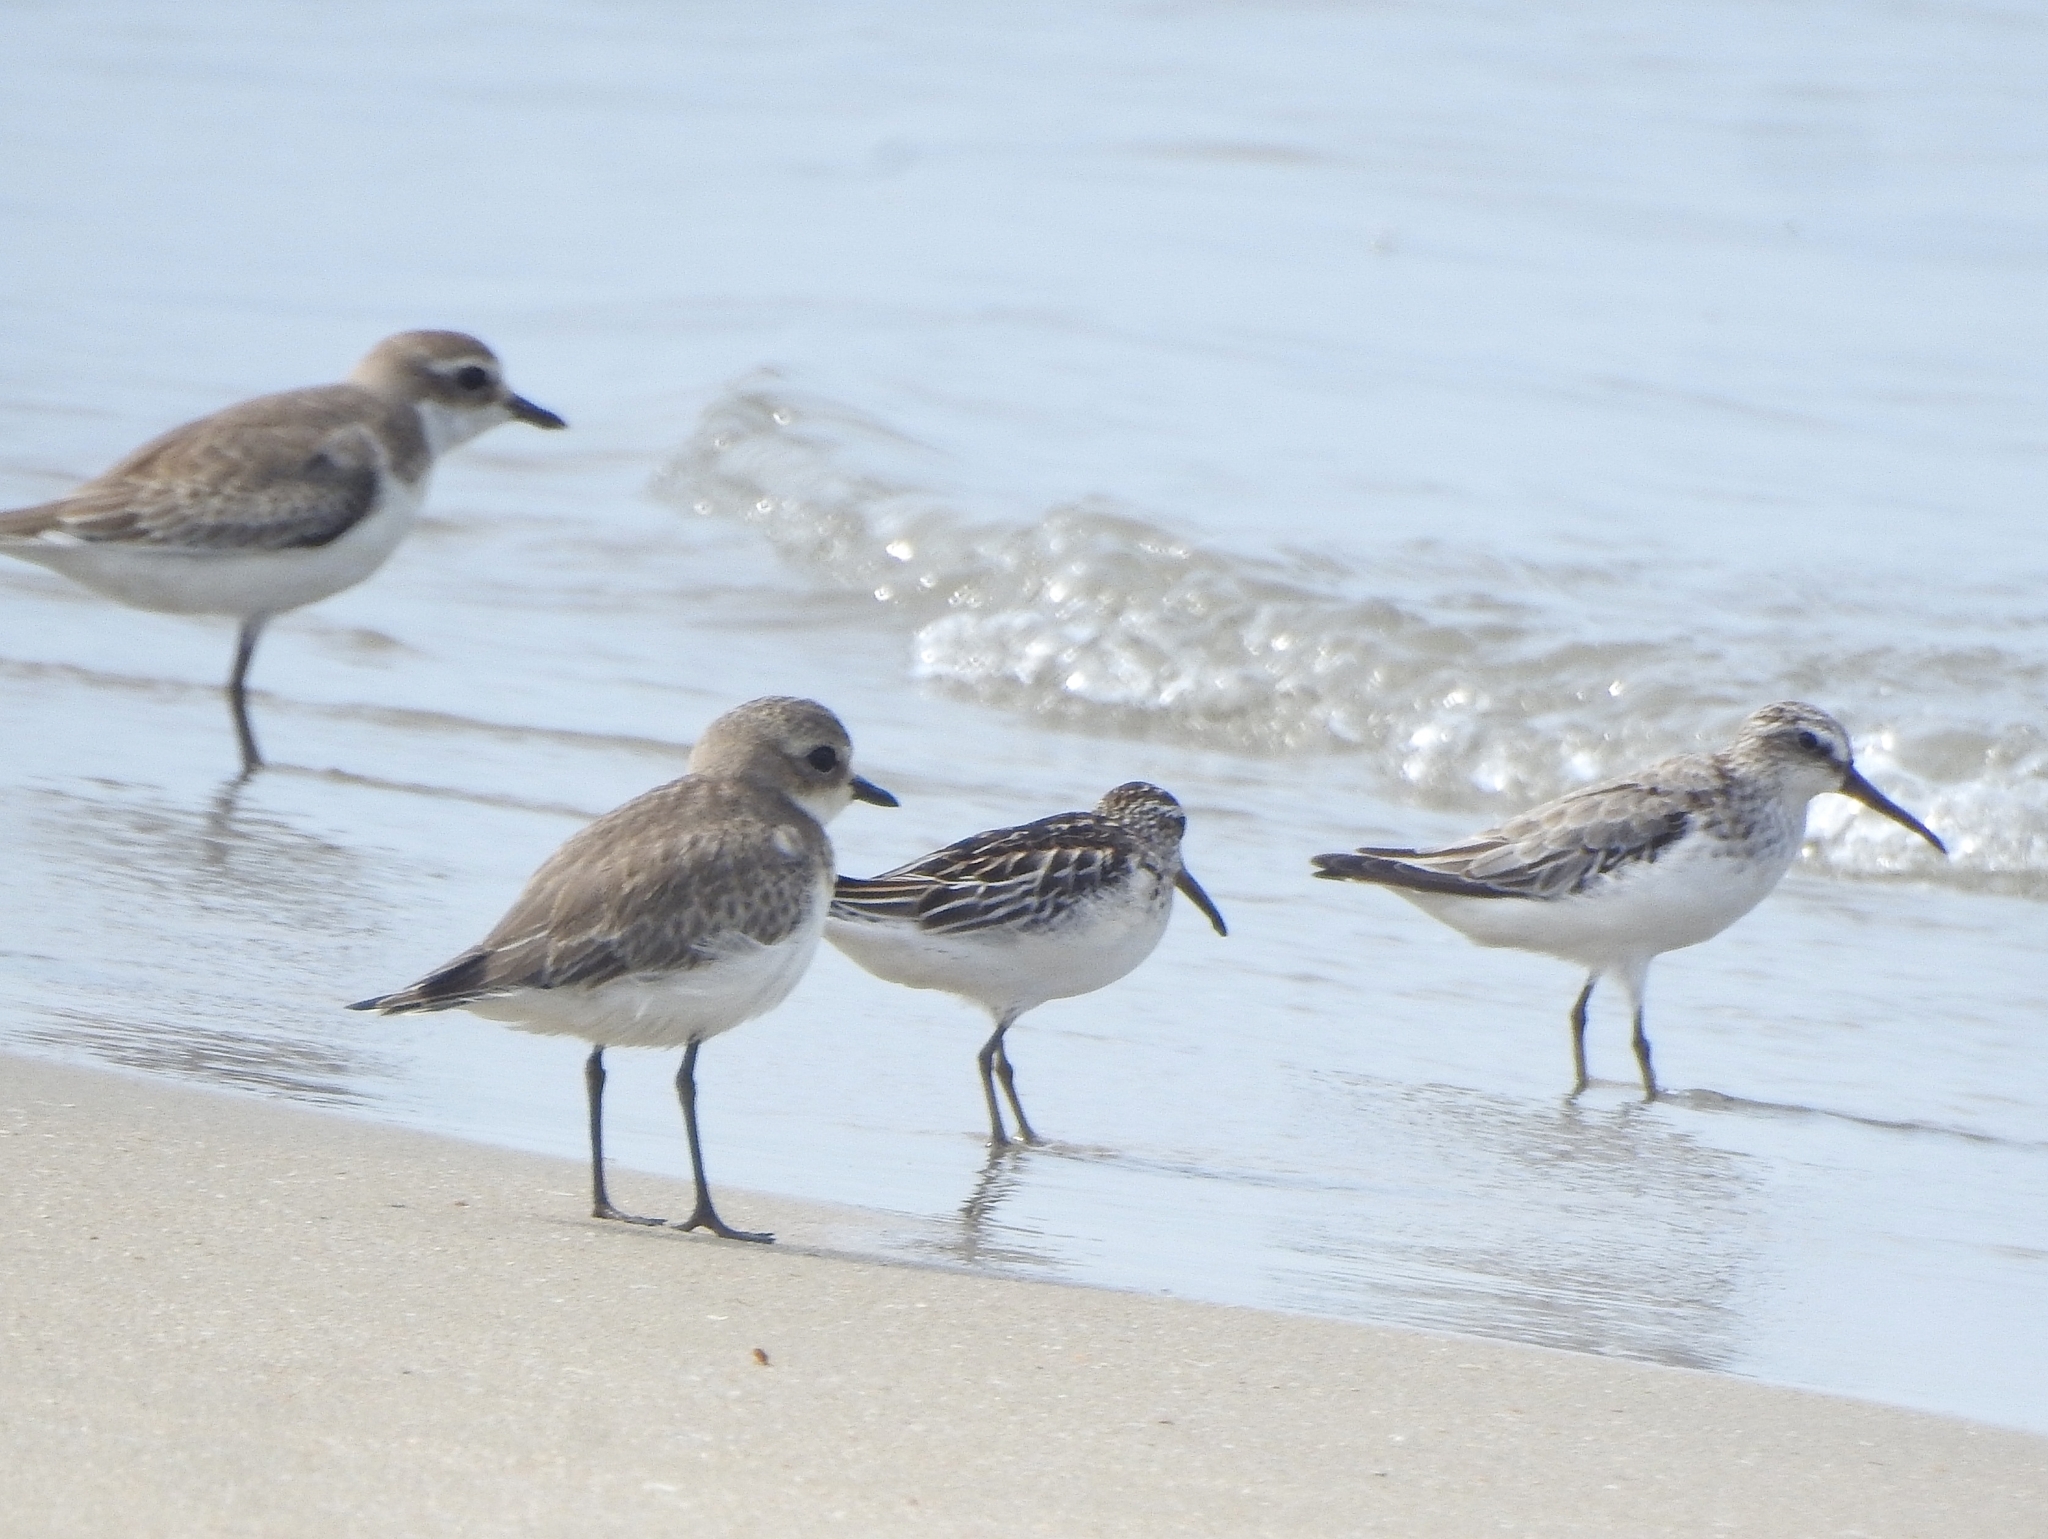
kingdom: Animalia
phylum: Chordata
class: Aves
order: Charadriiformes
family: Scolopacidae
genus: Calidris
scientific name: Calidris falcinellus
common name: Broad-billed sandpiper
